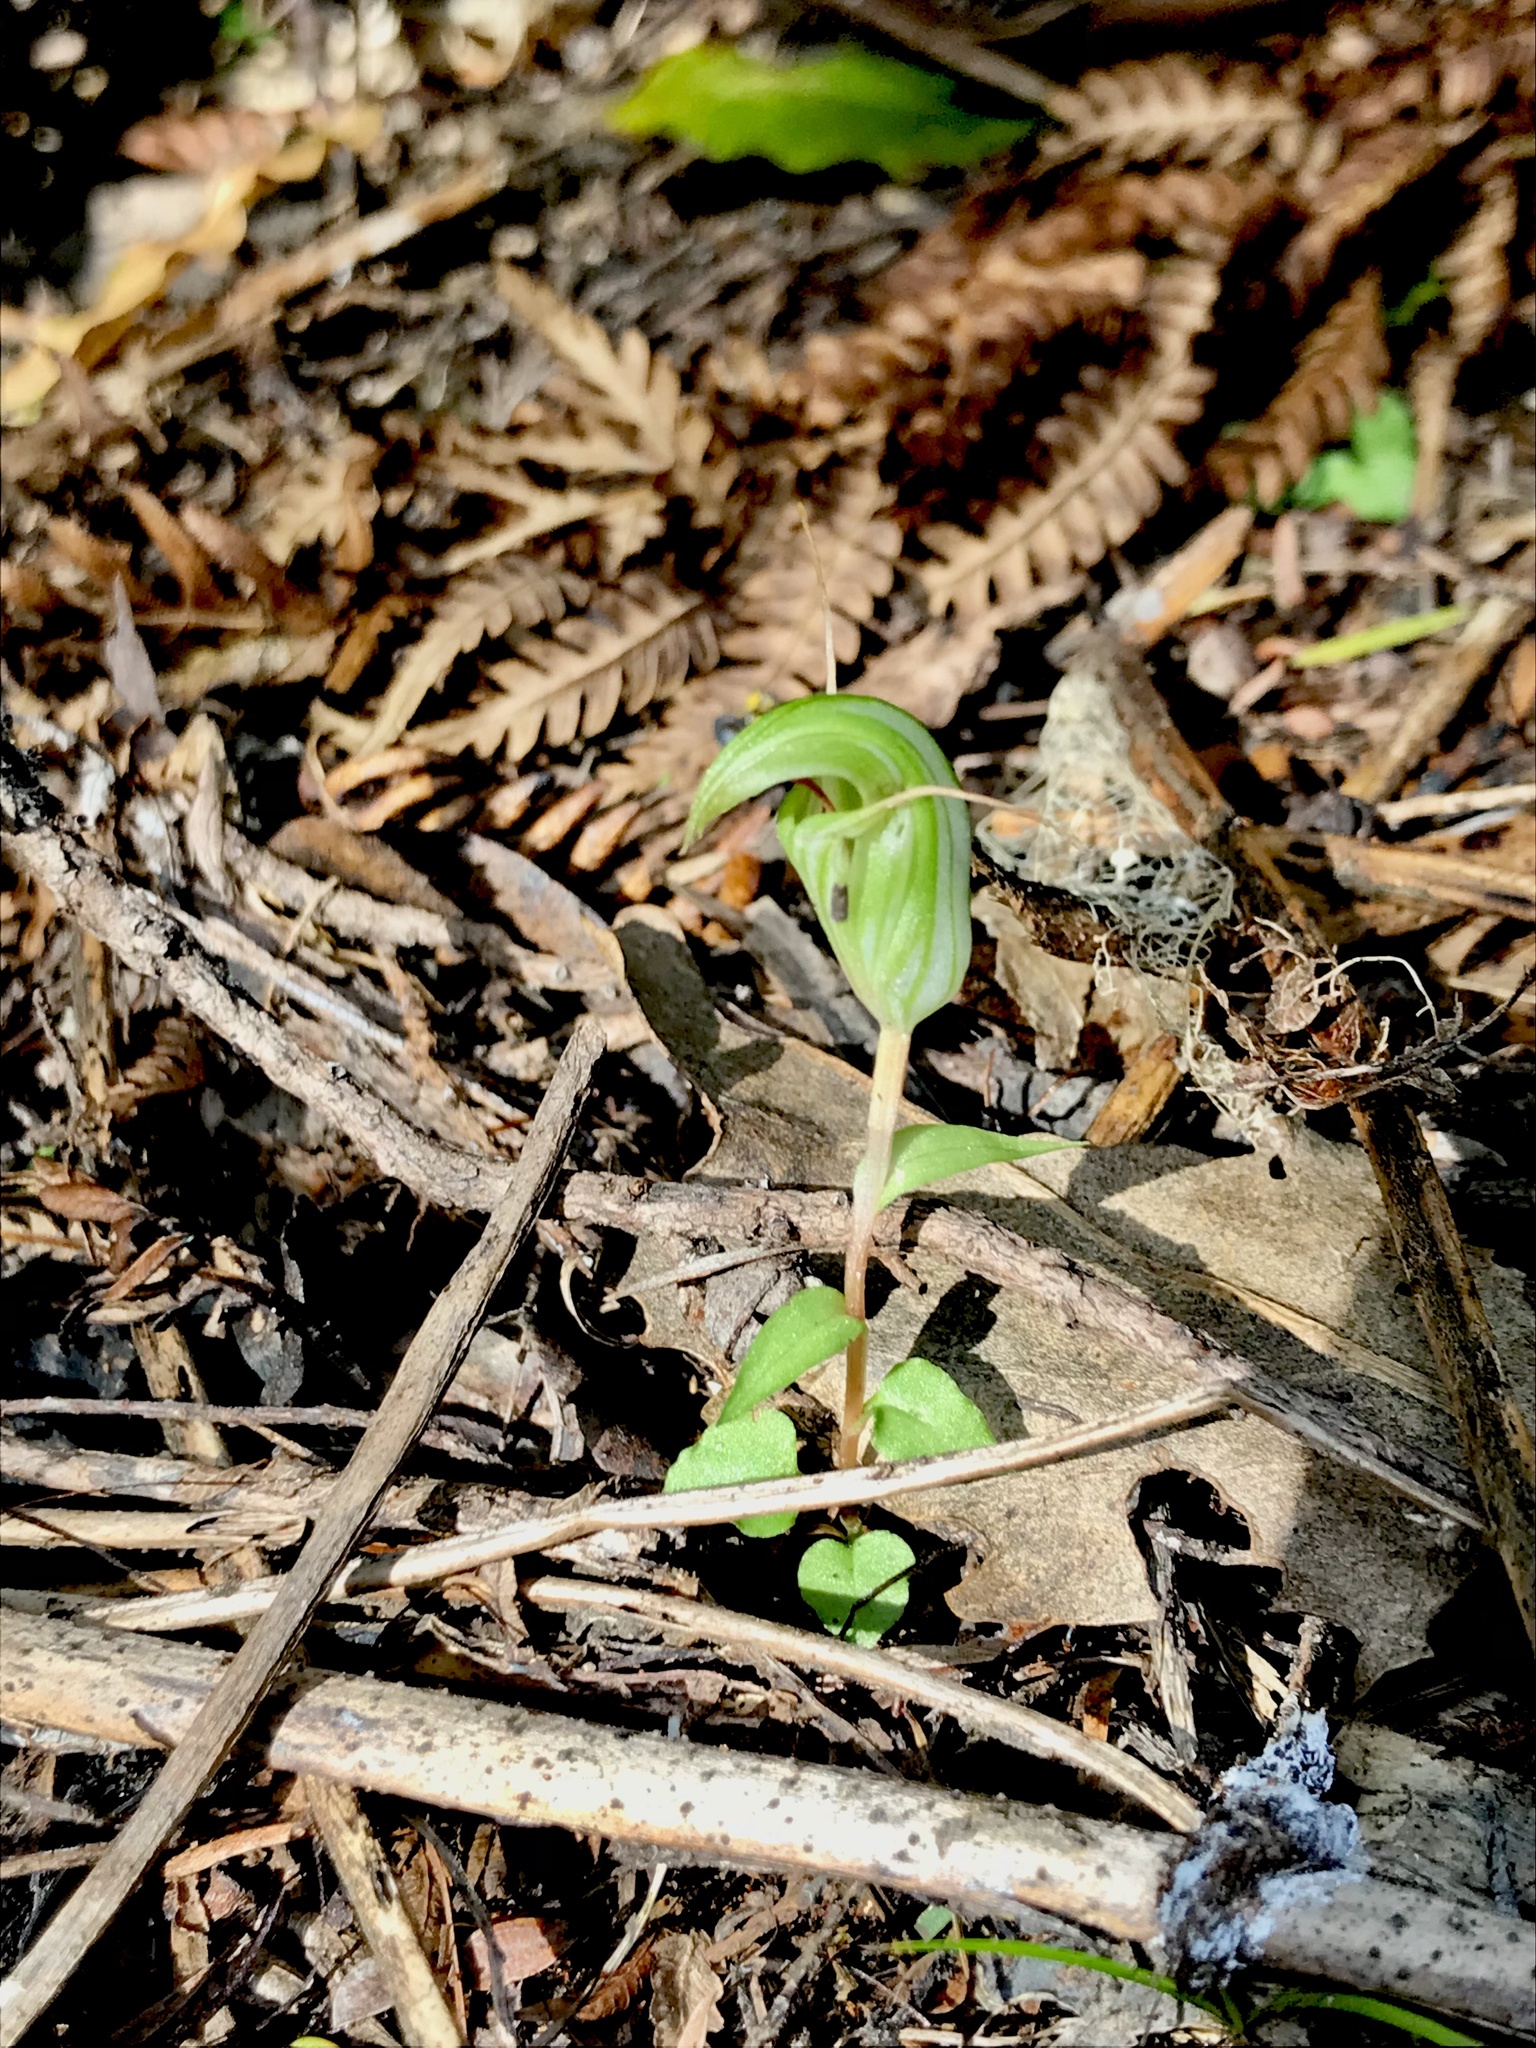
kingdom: Plantae
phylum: Tracheophyta
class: Liliopsida
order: Asparagales
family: Orchidaceae
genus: Pterostylis
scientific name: Pterostylis alobula
